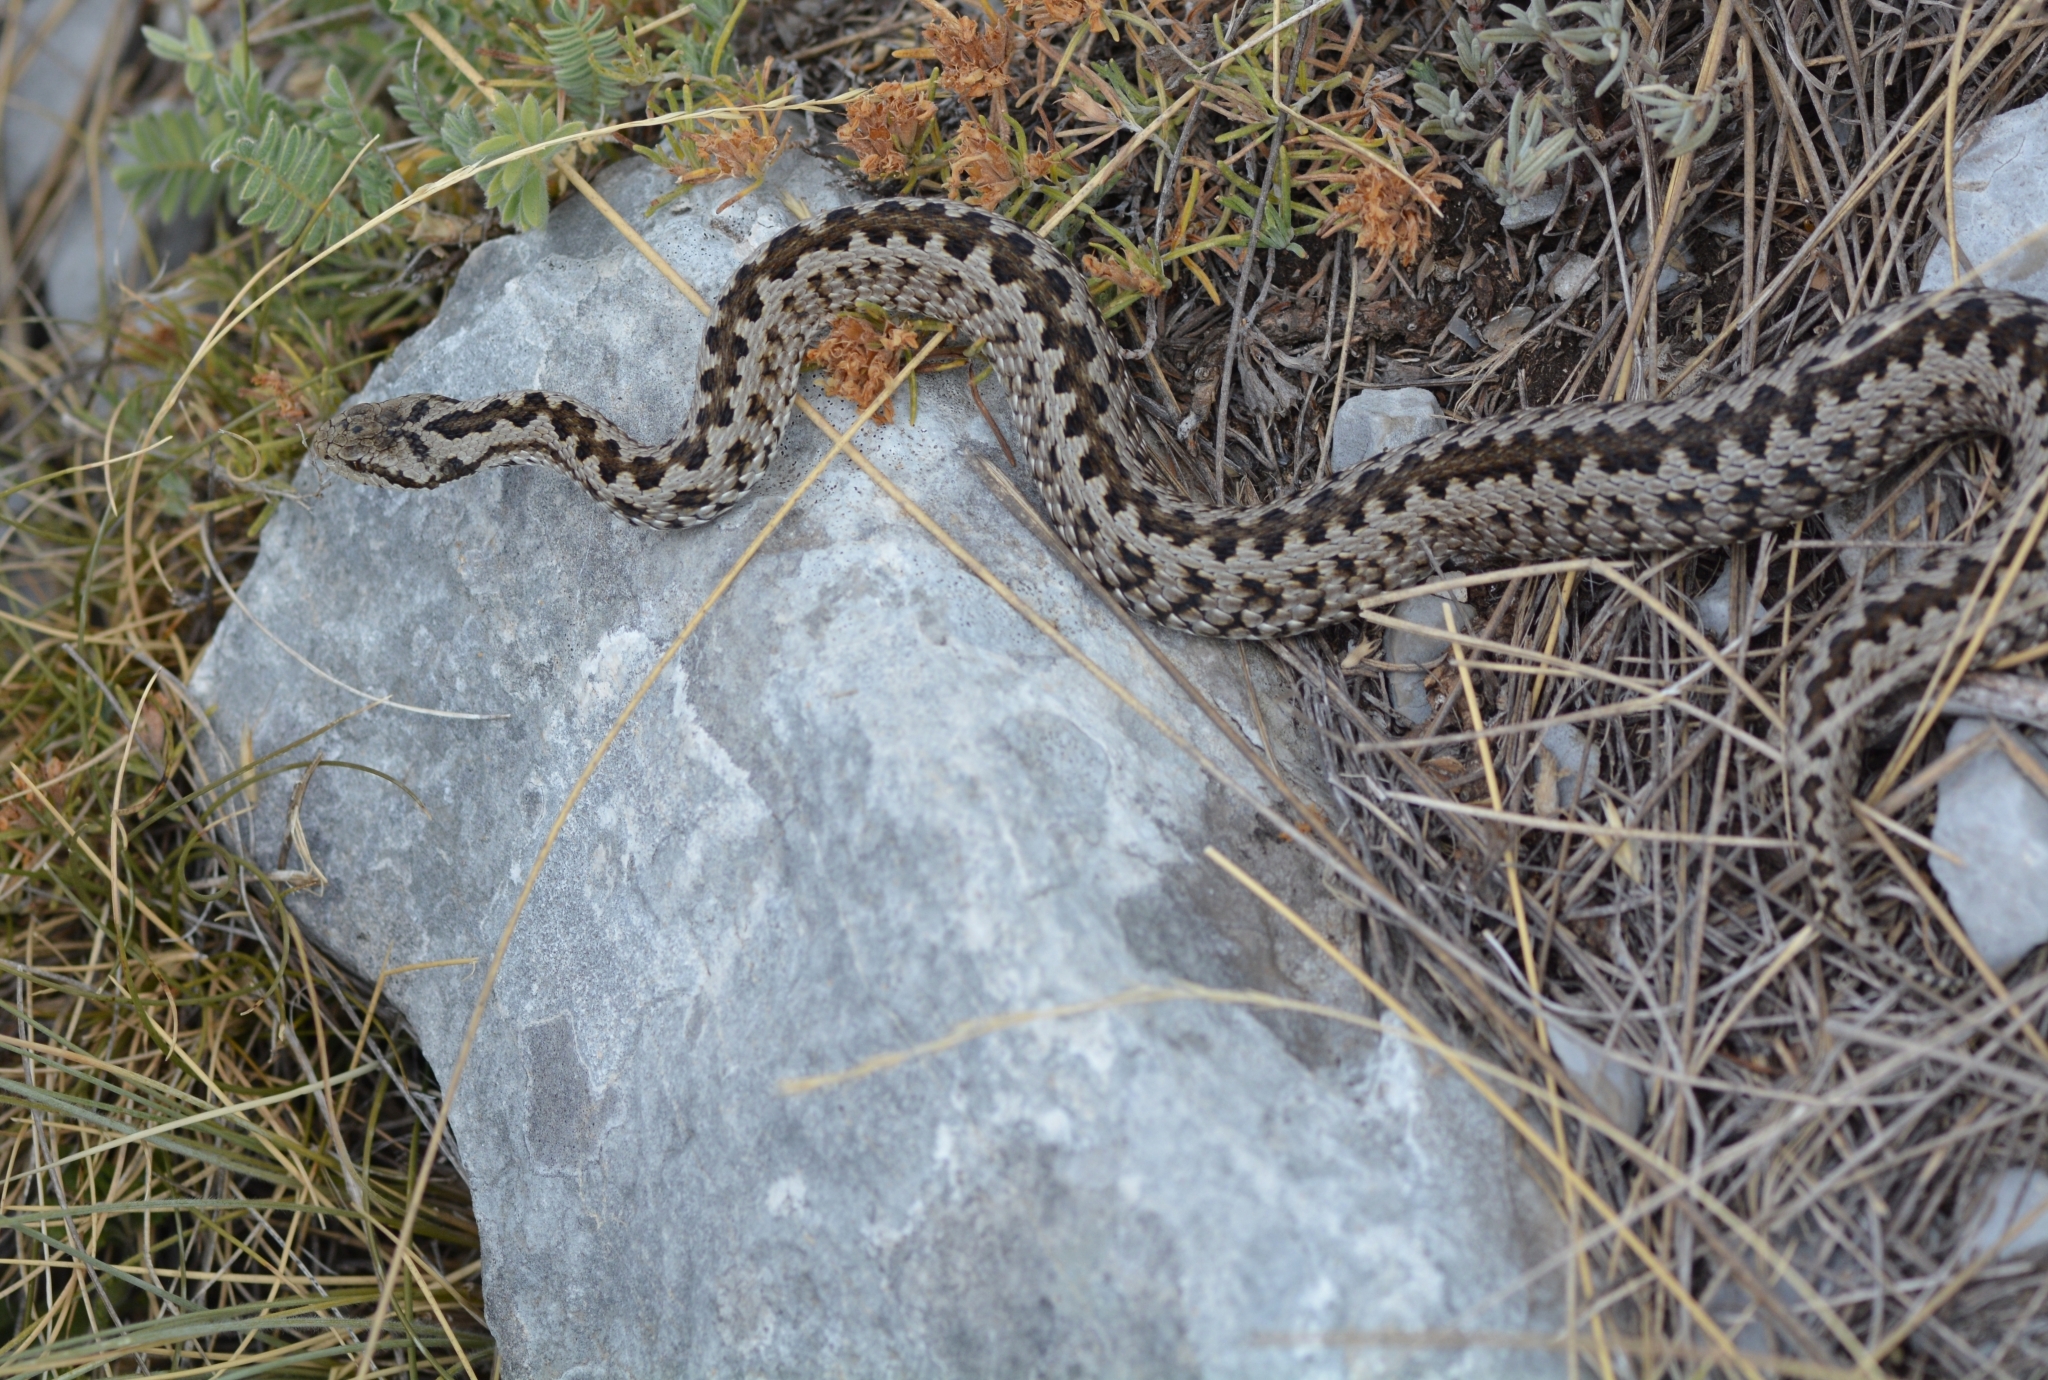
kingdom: Animalia
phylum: Chordata
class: Squamata
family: Viperidae
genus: Vipera
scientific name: Vipera ursinii
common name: Meadow viper
